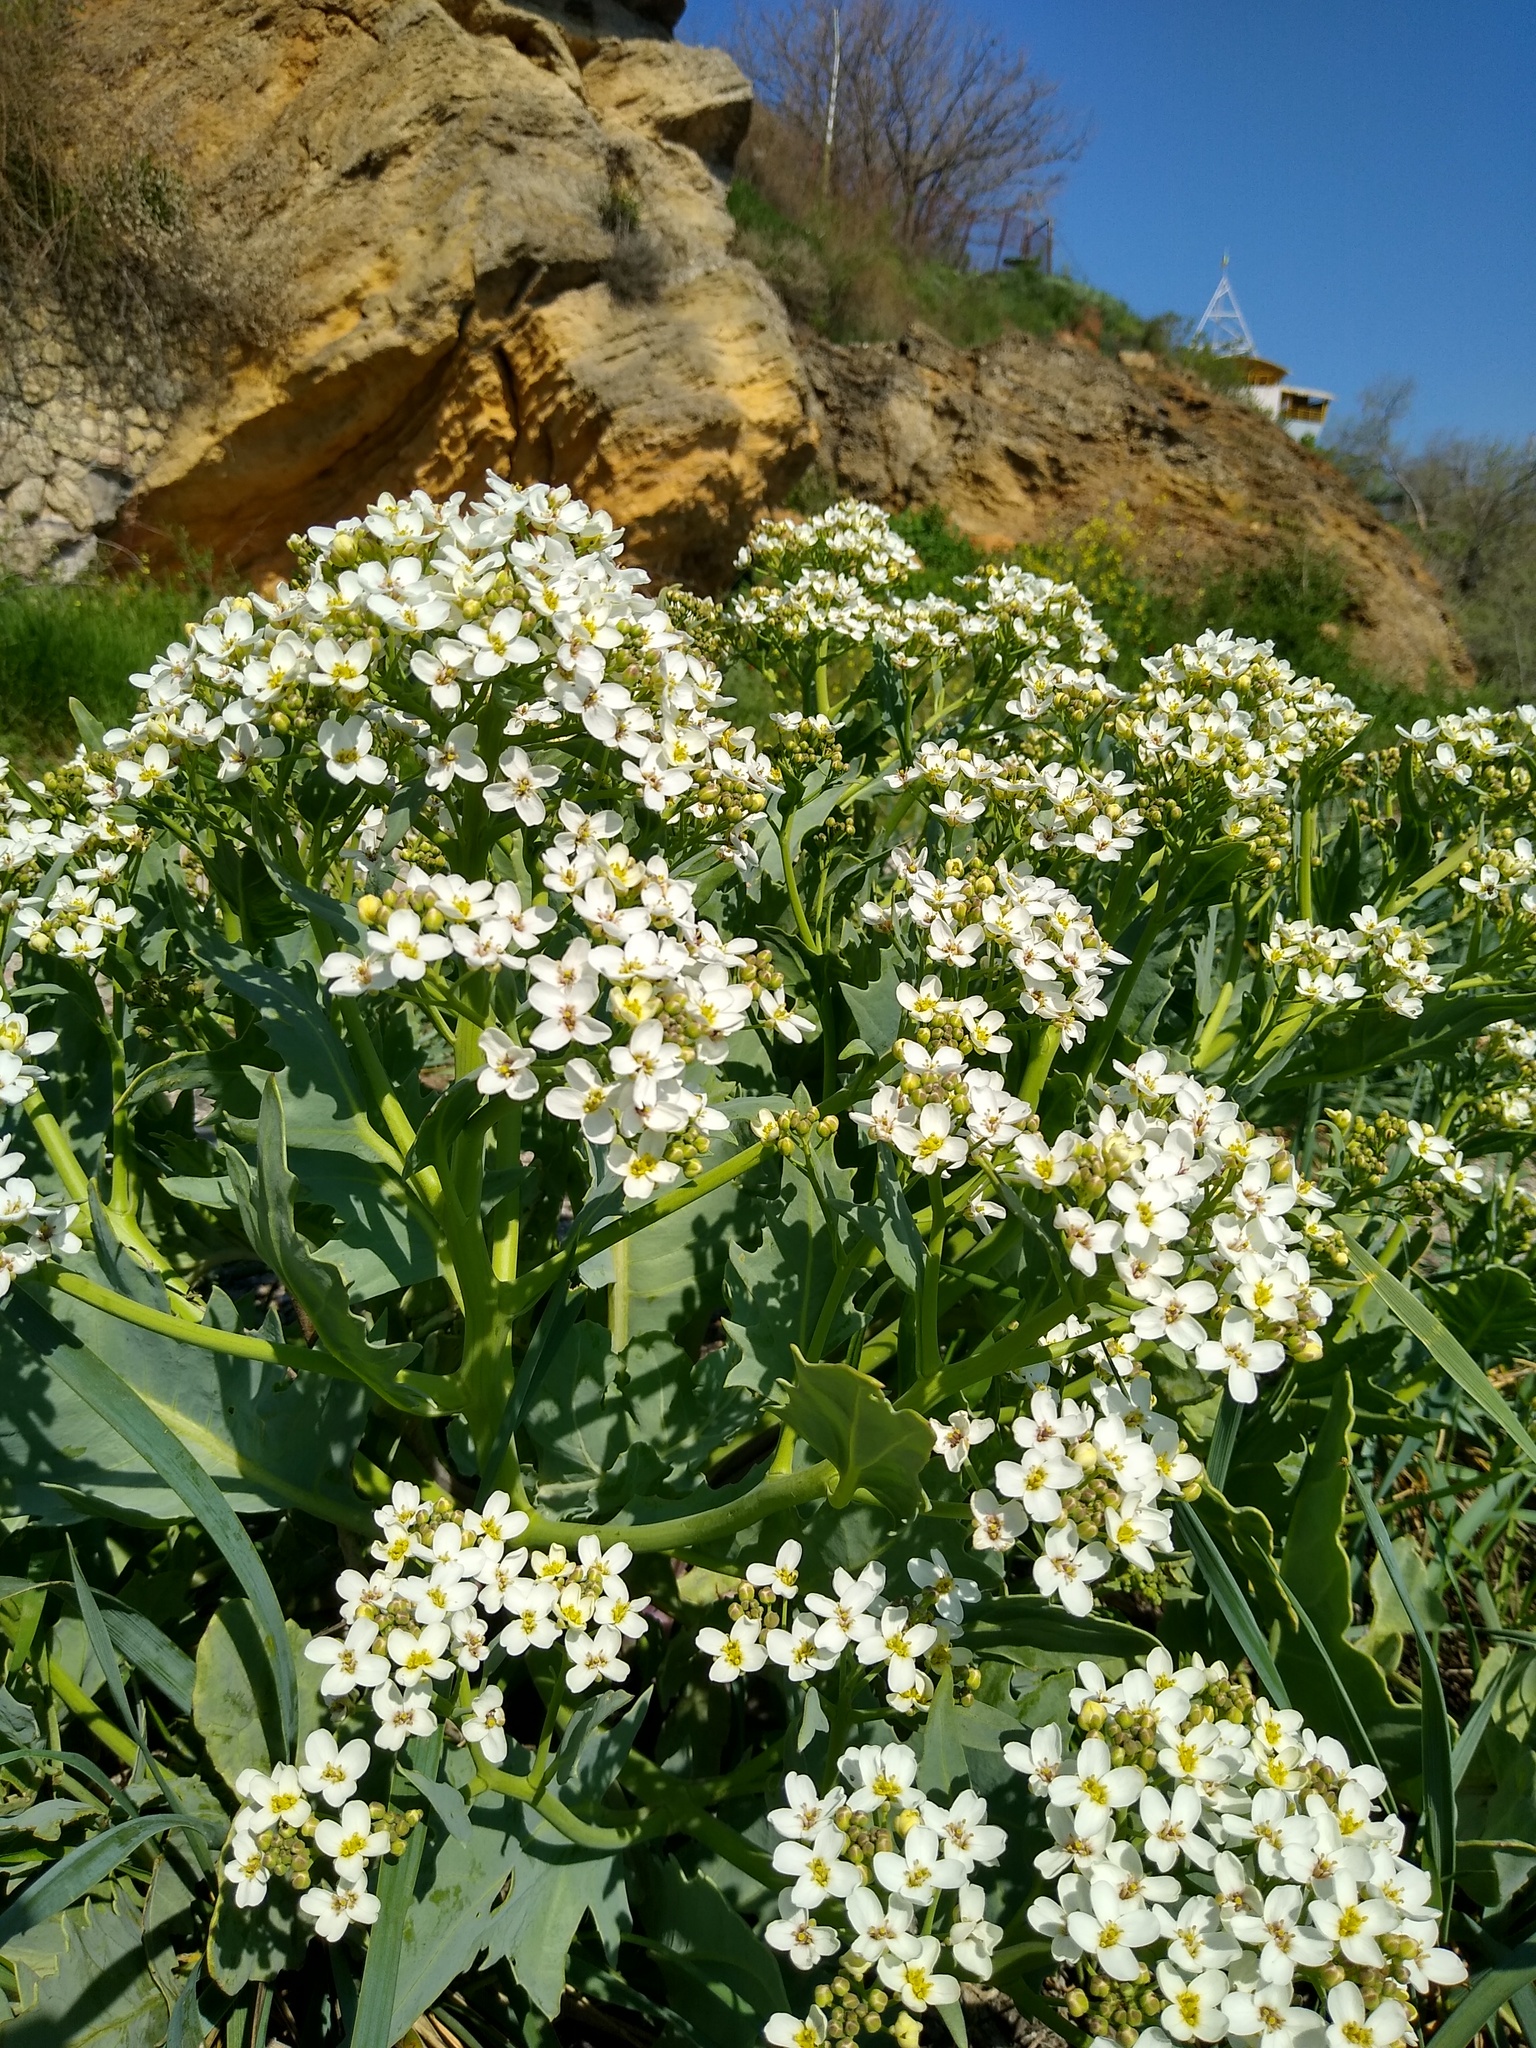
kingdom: Plantae
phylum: Tracheophyta
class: Magnoliopsida
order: Brassicales
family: Brassicaceae
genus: Crambe
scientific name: Crambe maritima
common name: Sea-kale
